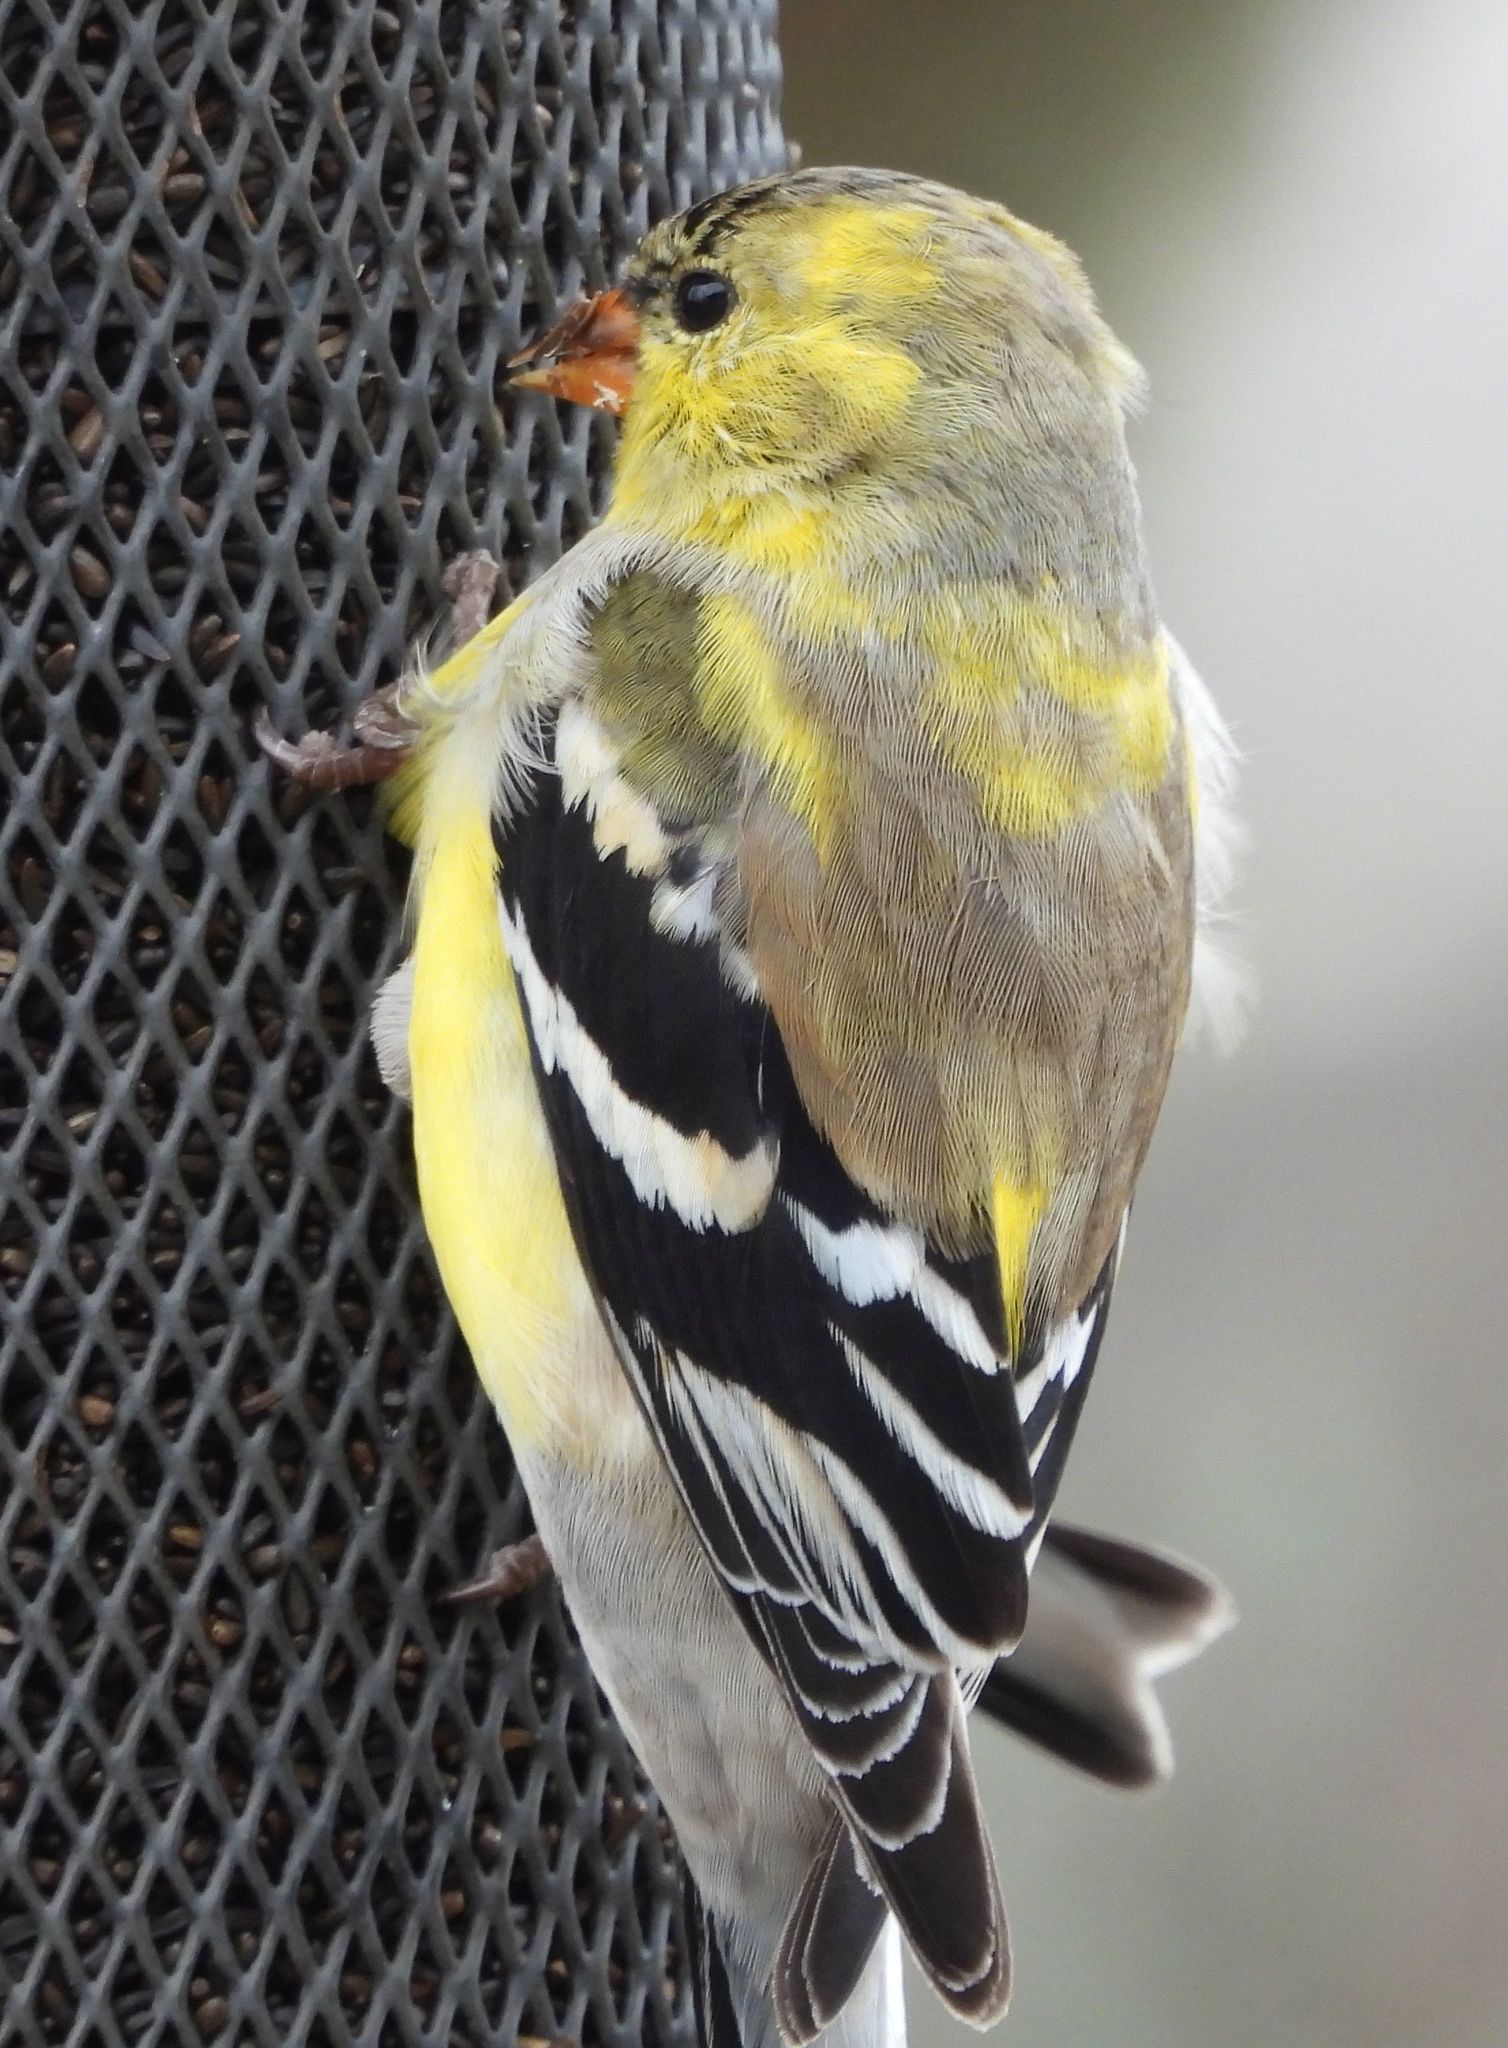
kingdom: Animalia
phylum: Chordata
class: Aves
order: Passeriformes
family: Fringillidae
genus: Spinus
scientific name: Spinus tristis
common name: American goldfinch
